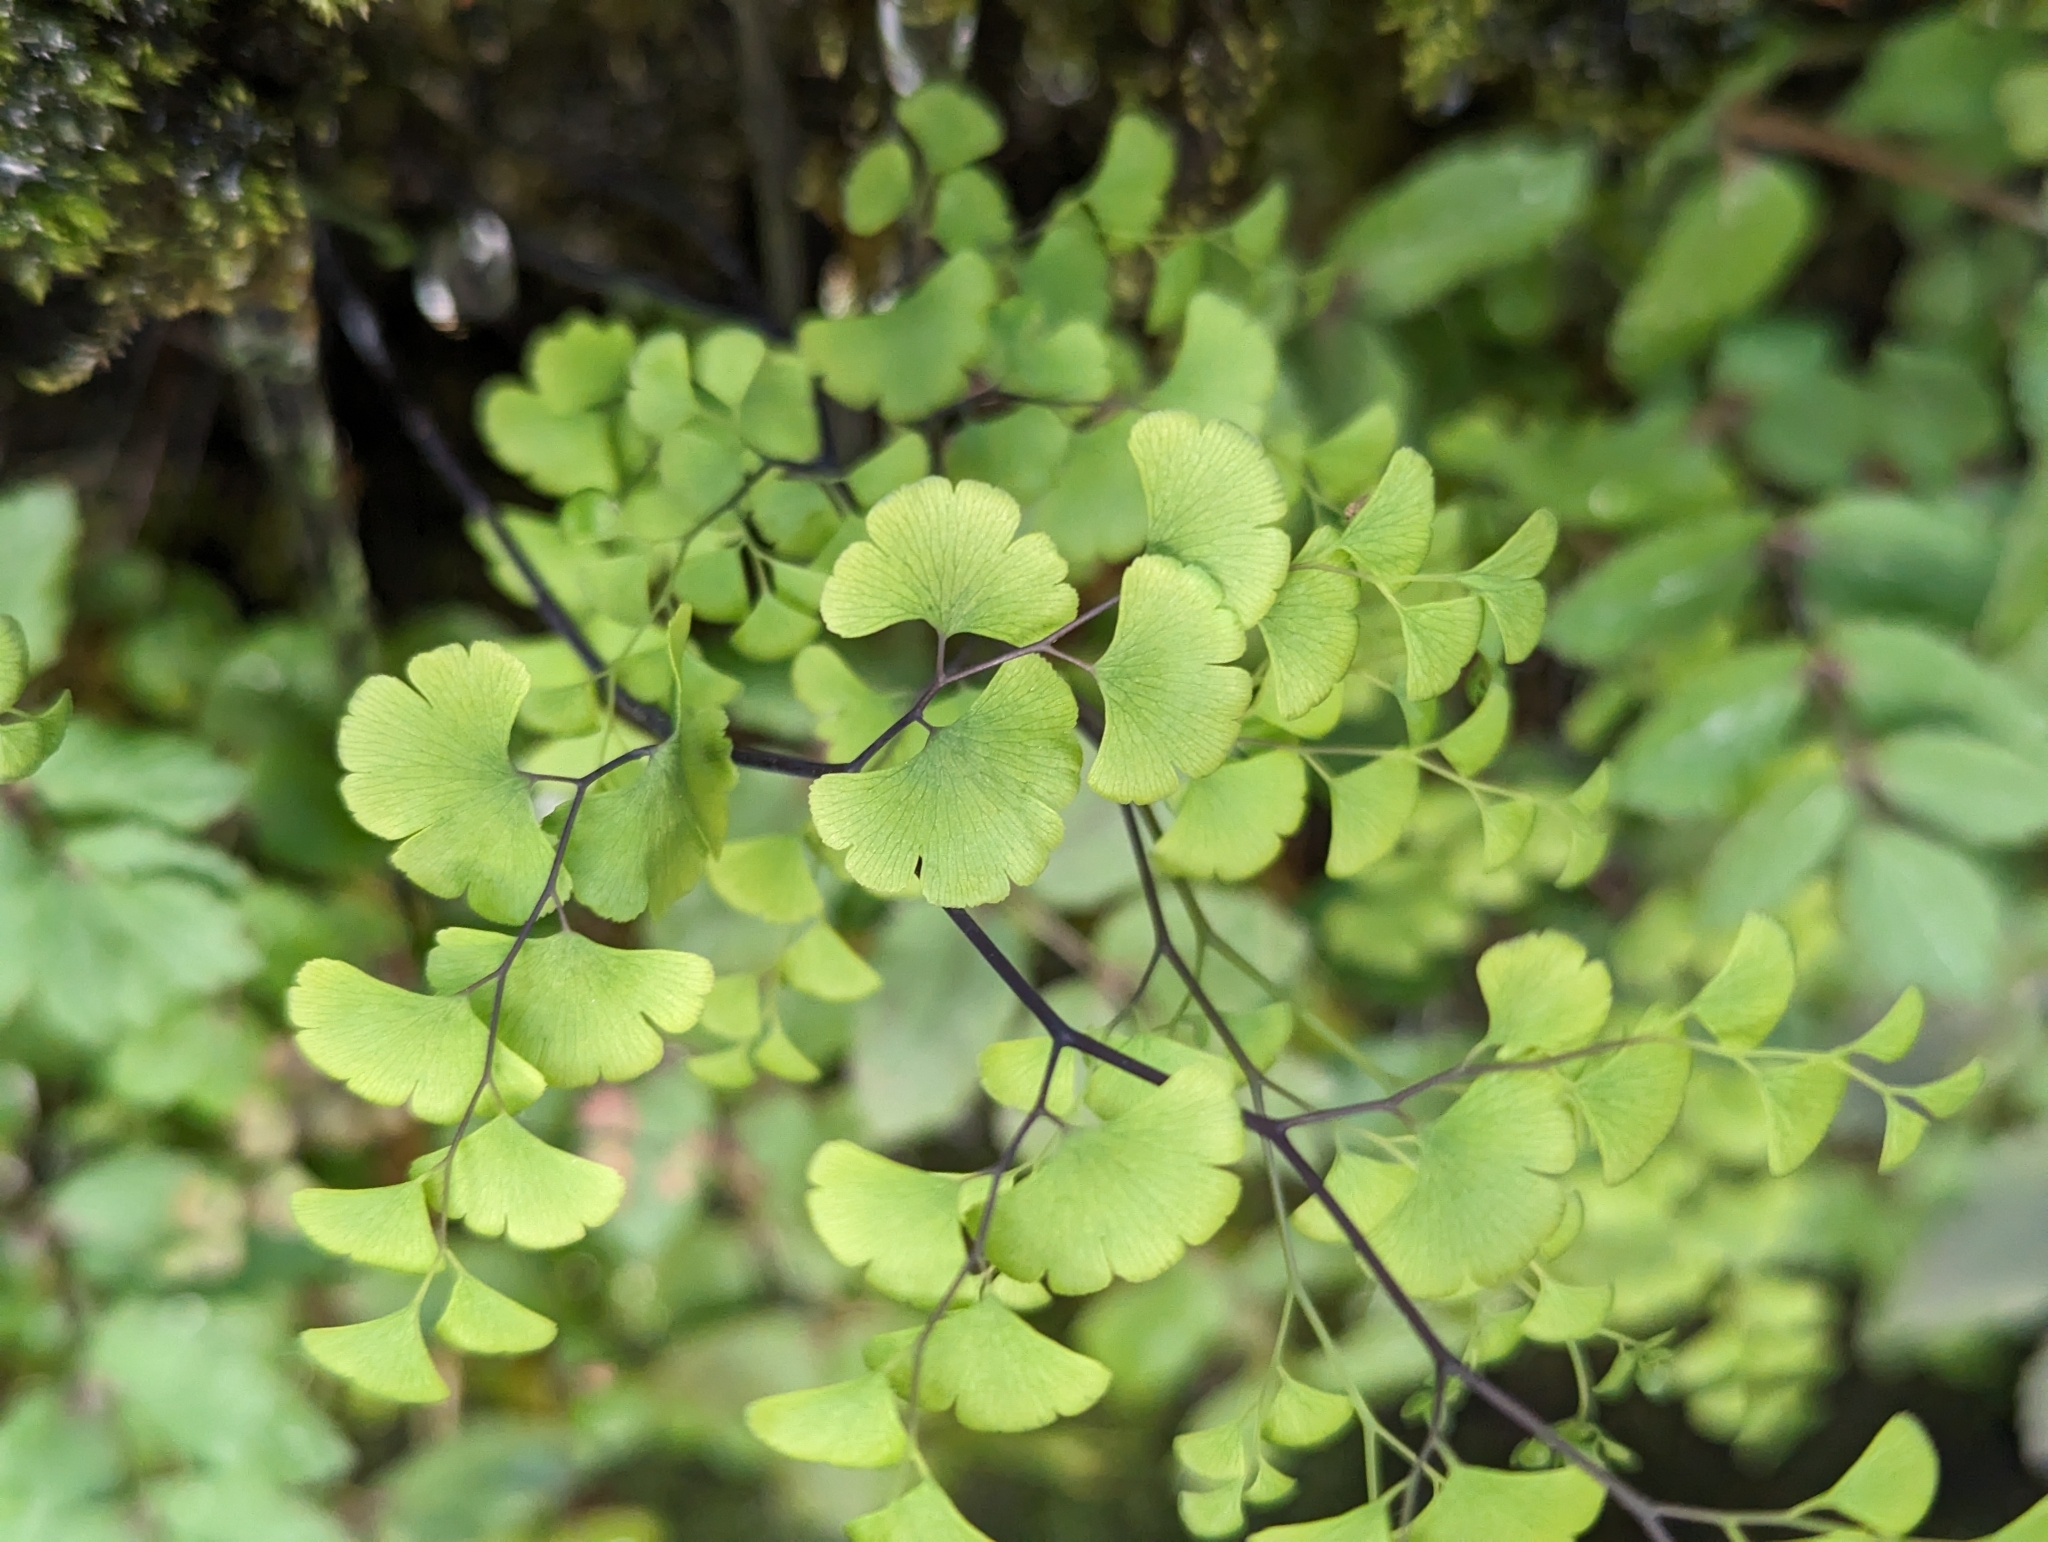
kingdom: Plantae
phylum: Tracheophyta
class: Polypodiopsida
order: Polypodiales
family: Pteridaceae
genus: Adiantum
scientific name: Adiantum capillus-veneris
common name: Maidenhair fern
